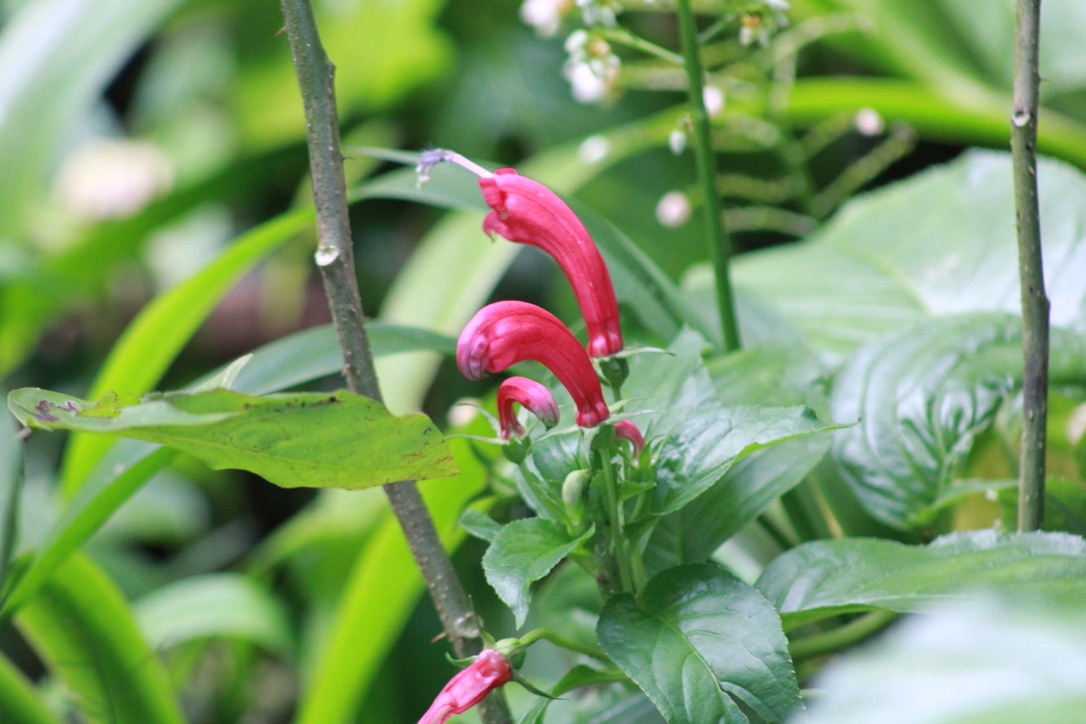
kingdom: Plantae
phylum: Tracheophyta
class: Magnoliopsida
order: Asterales
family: Campanulaceae
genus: Centropogon
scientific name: Centropogon cornutus
